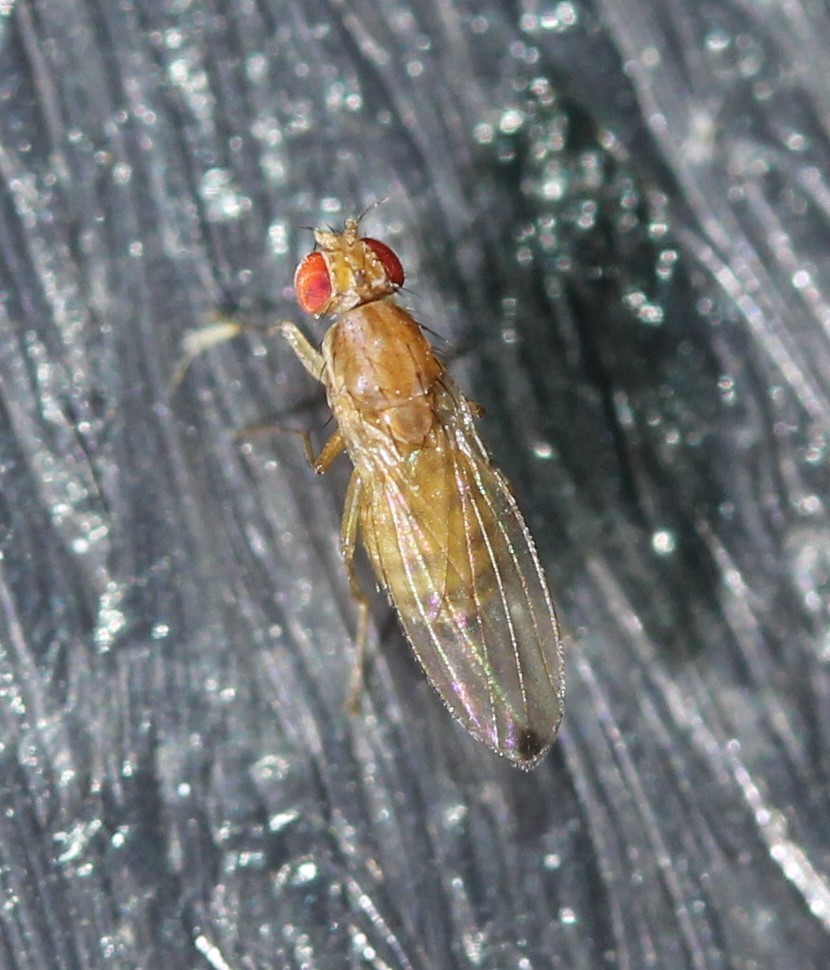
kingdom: Animalia
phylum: Arthropoda
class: Insecta
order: Diptera
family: Drosophilidae
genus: Scaptomyza
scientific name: Scaptomyza adusta
